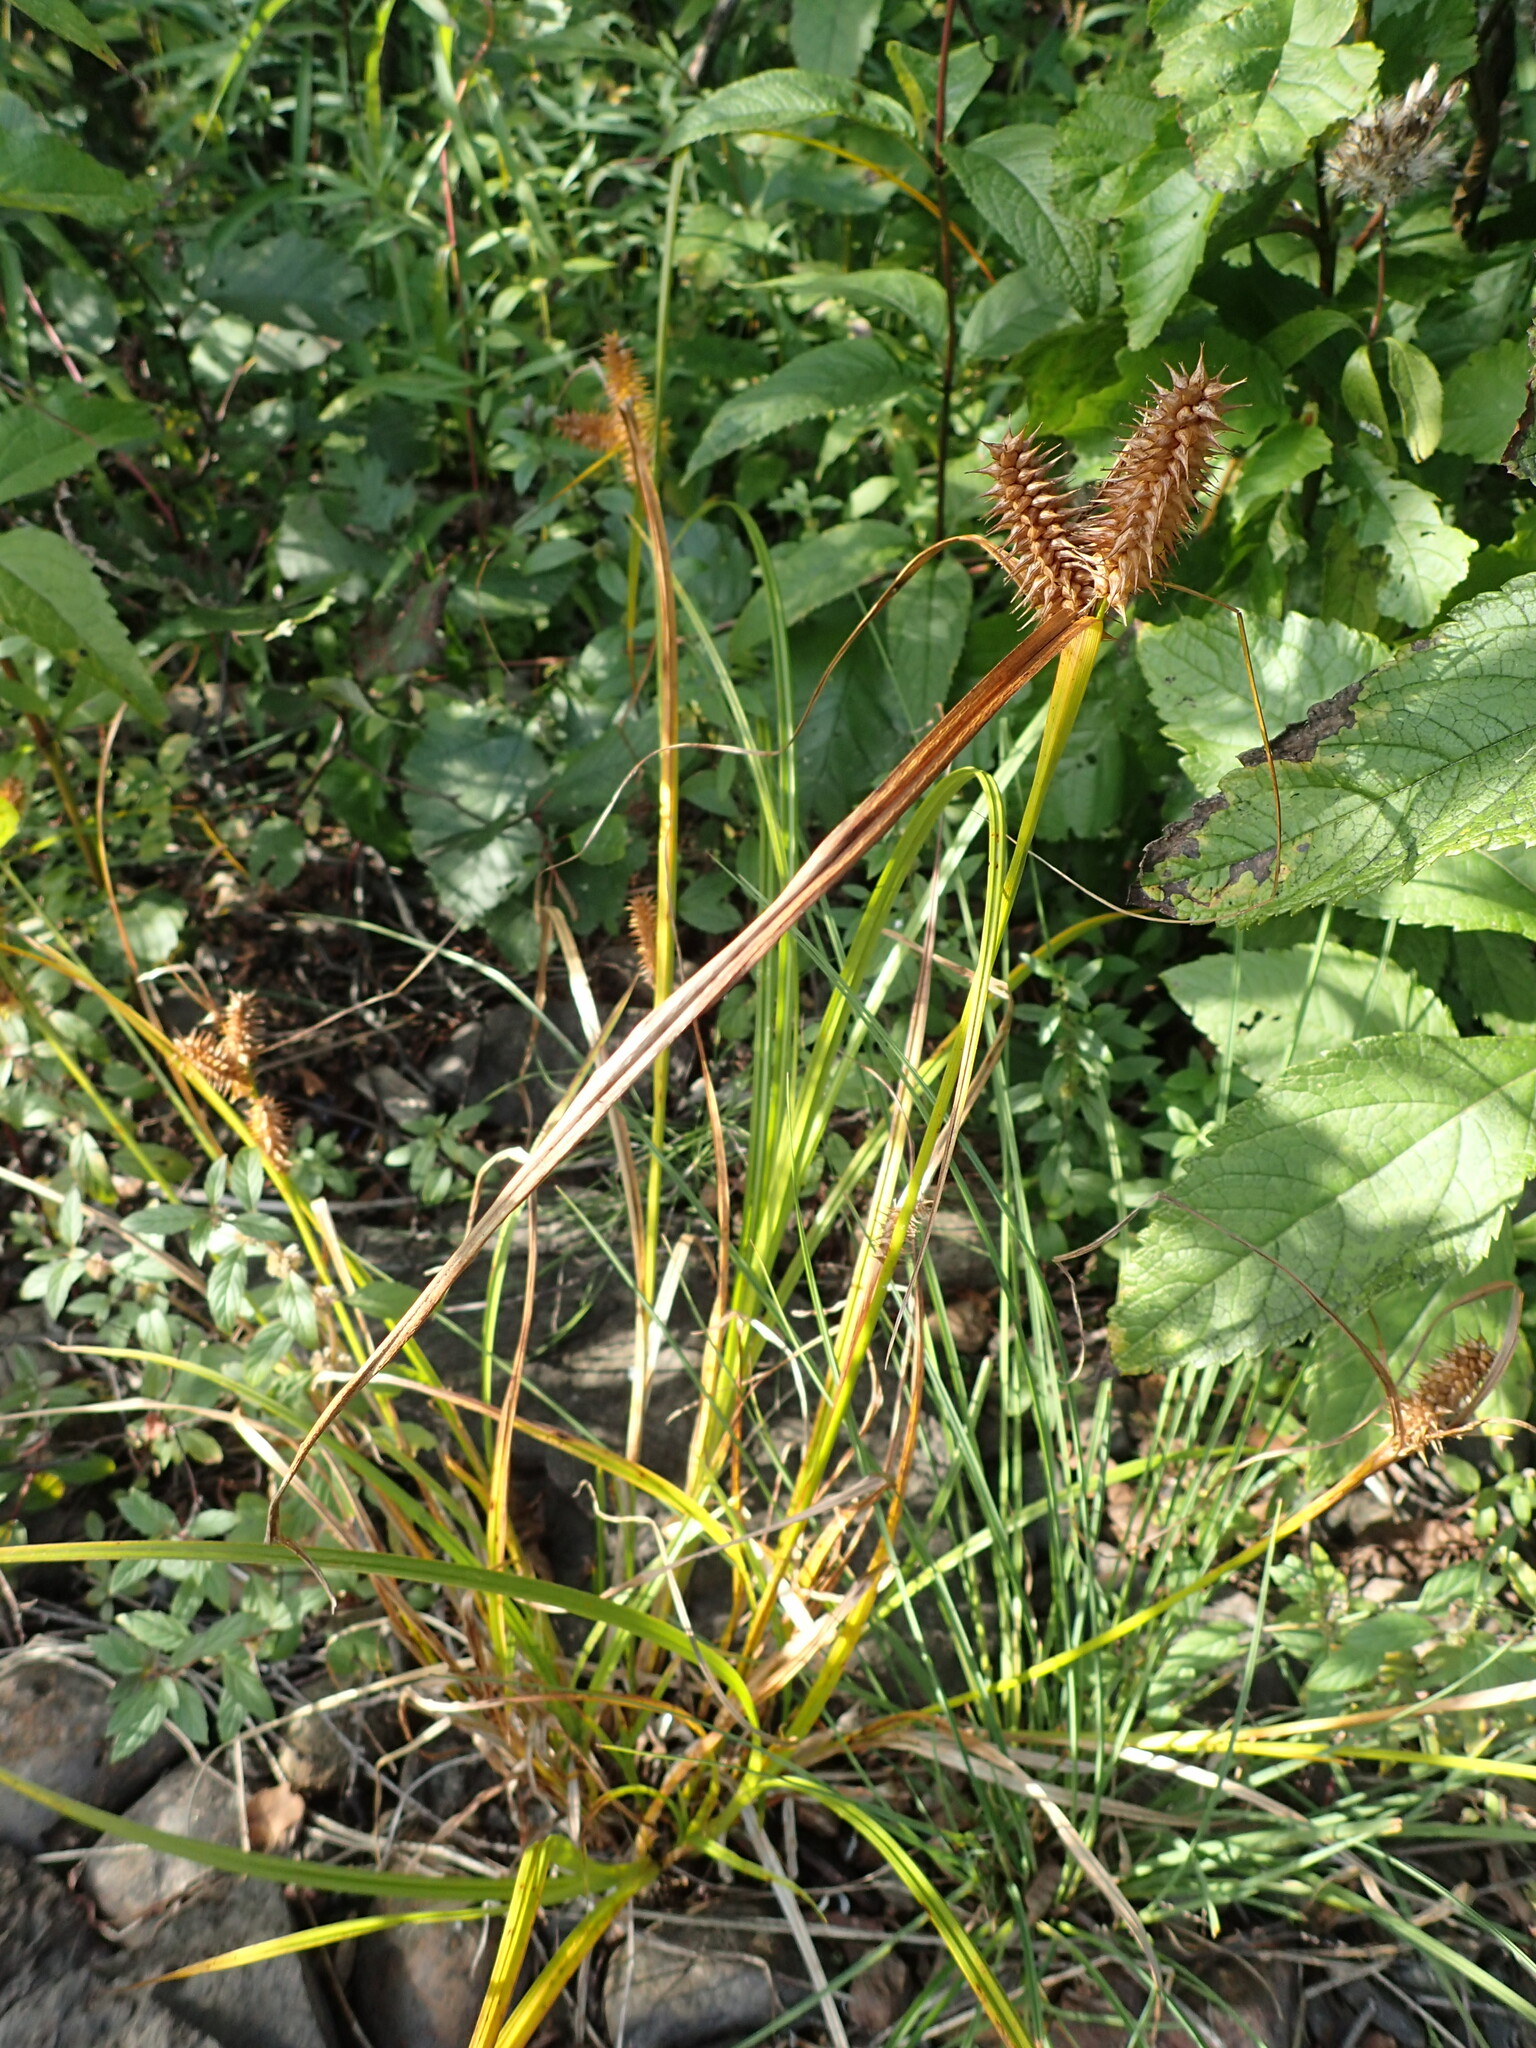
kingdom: Plantae
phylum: Tracheophyta
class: Liliopsida
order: Poales
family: Cyperaceae
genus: Carex
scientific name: Carex retrorsa
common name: Knot-sheath sedge
